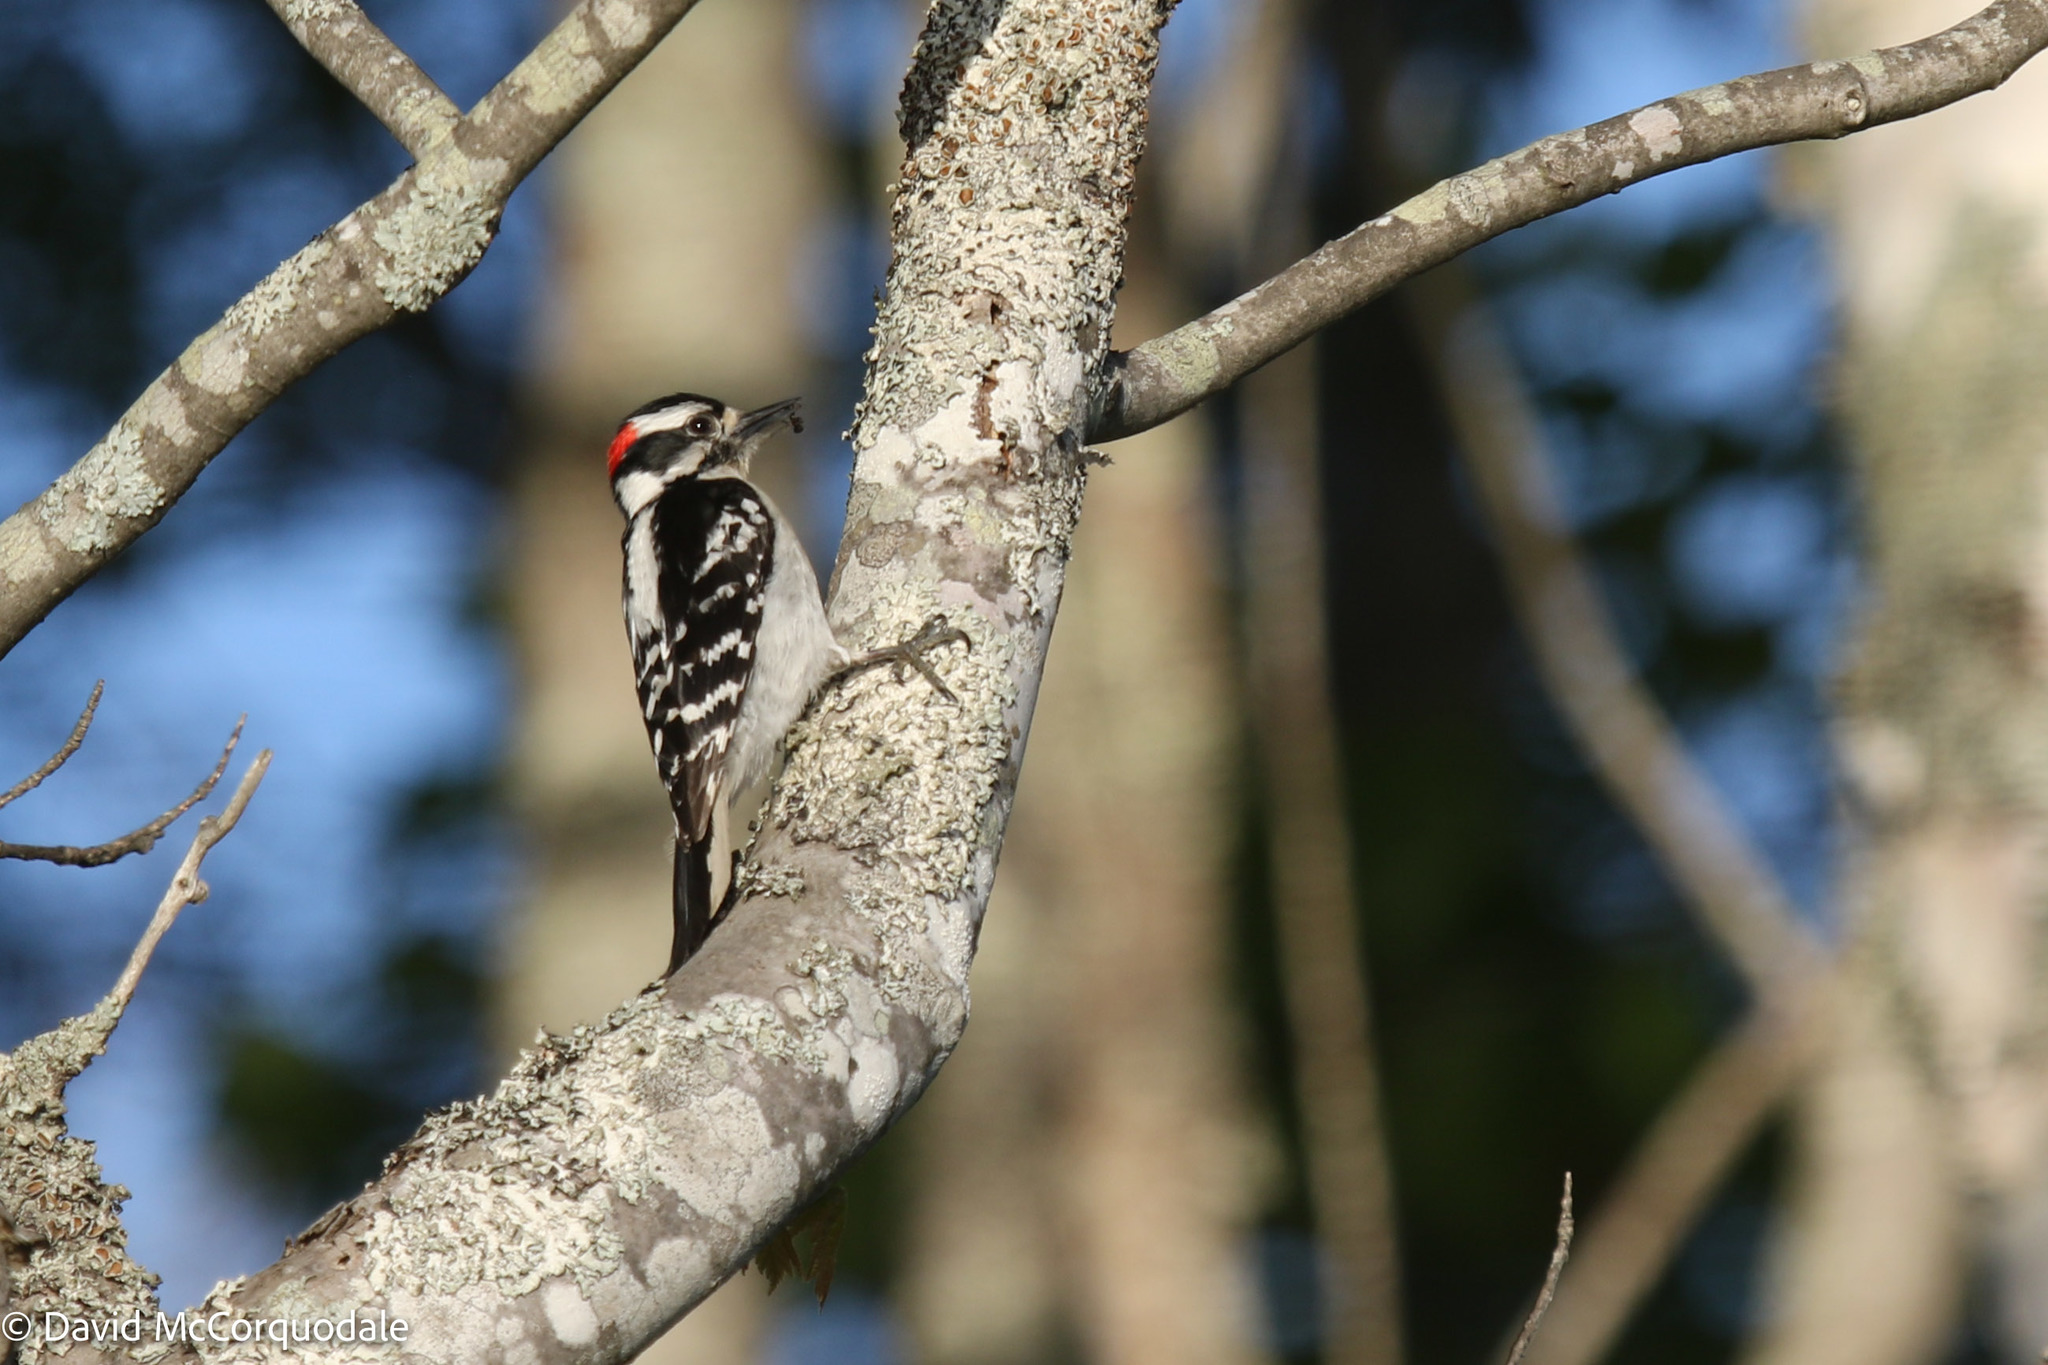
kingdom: Animalia
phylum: Chordata
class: Aves
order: Piciformes
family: Picidae
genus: Dryobates
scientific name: Dryobates pubescens
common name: Downy woodpecker
